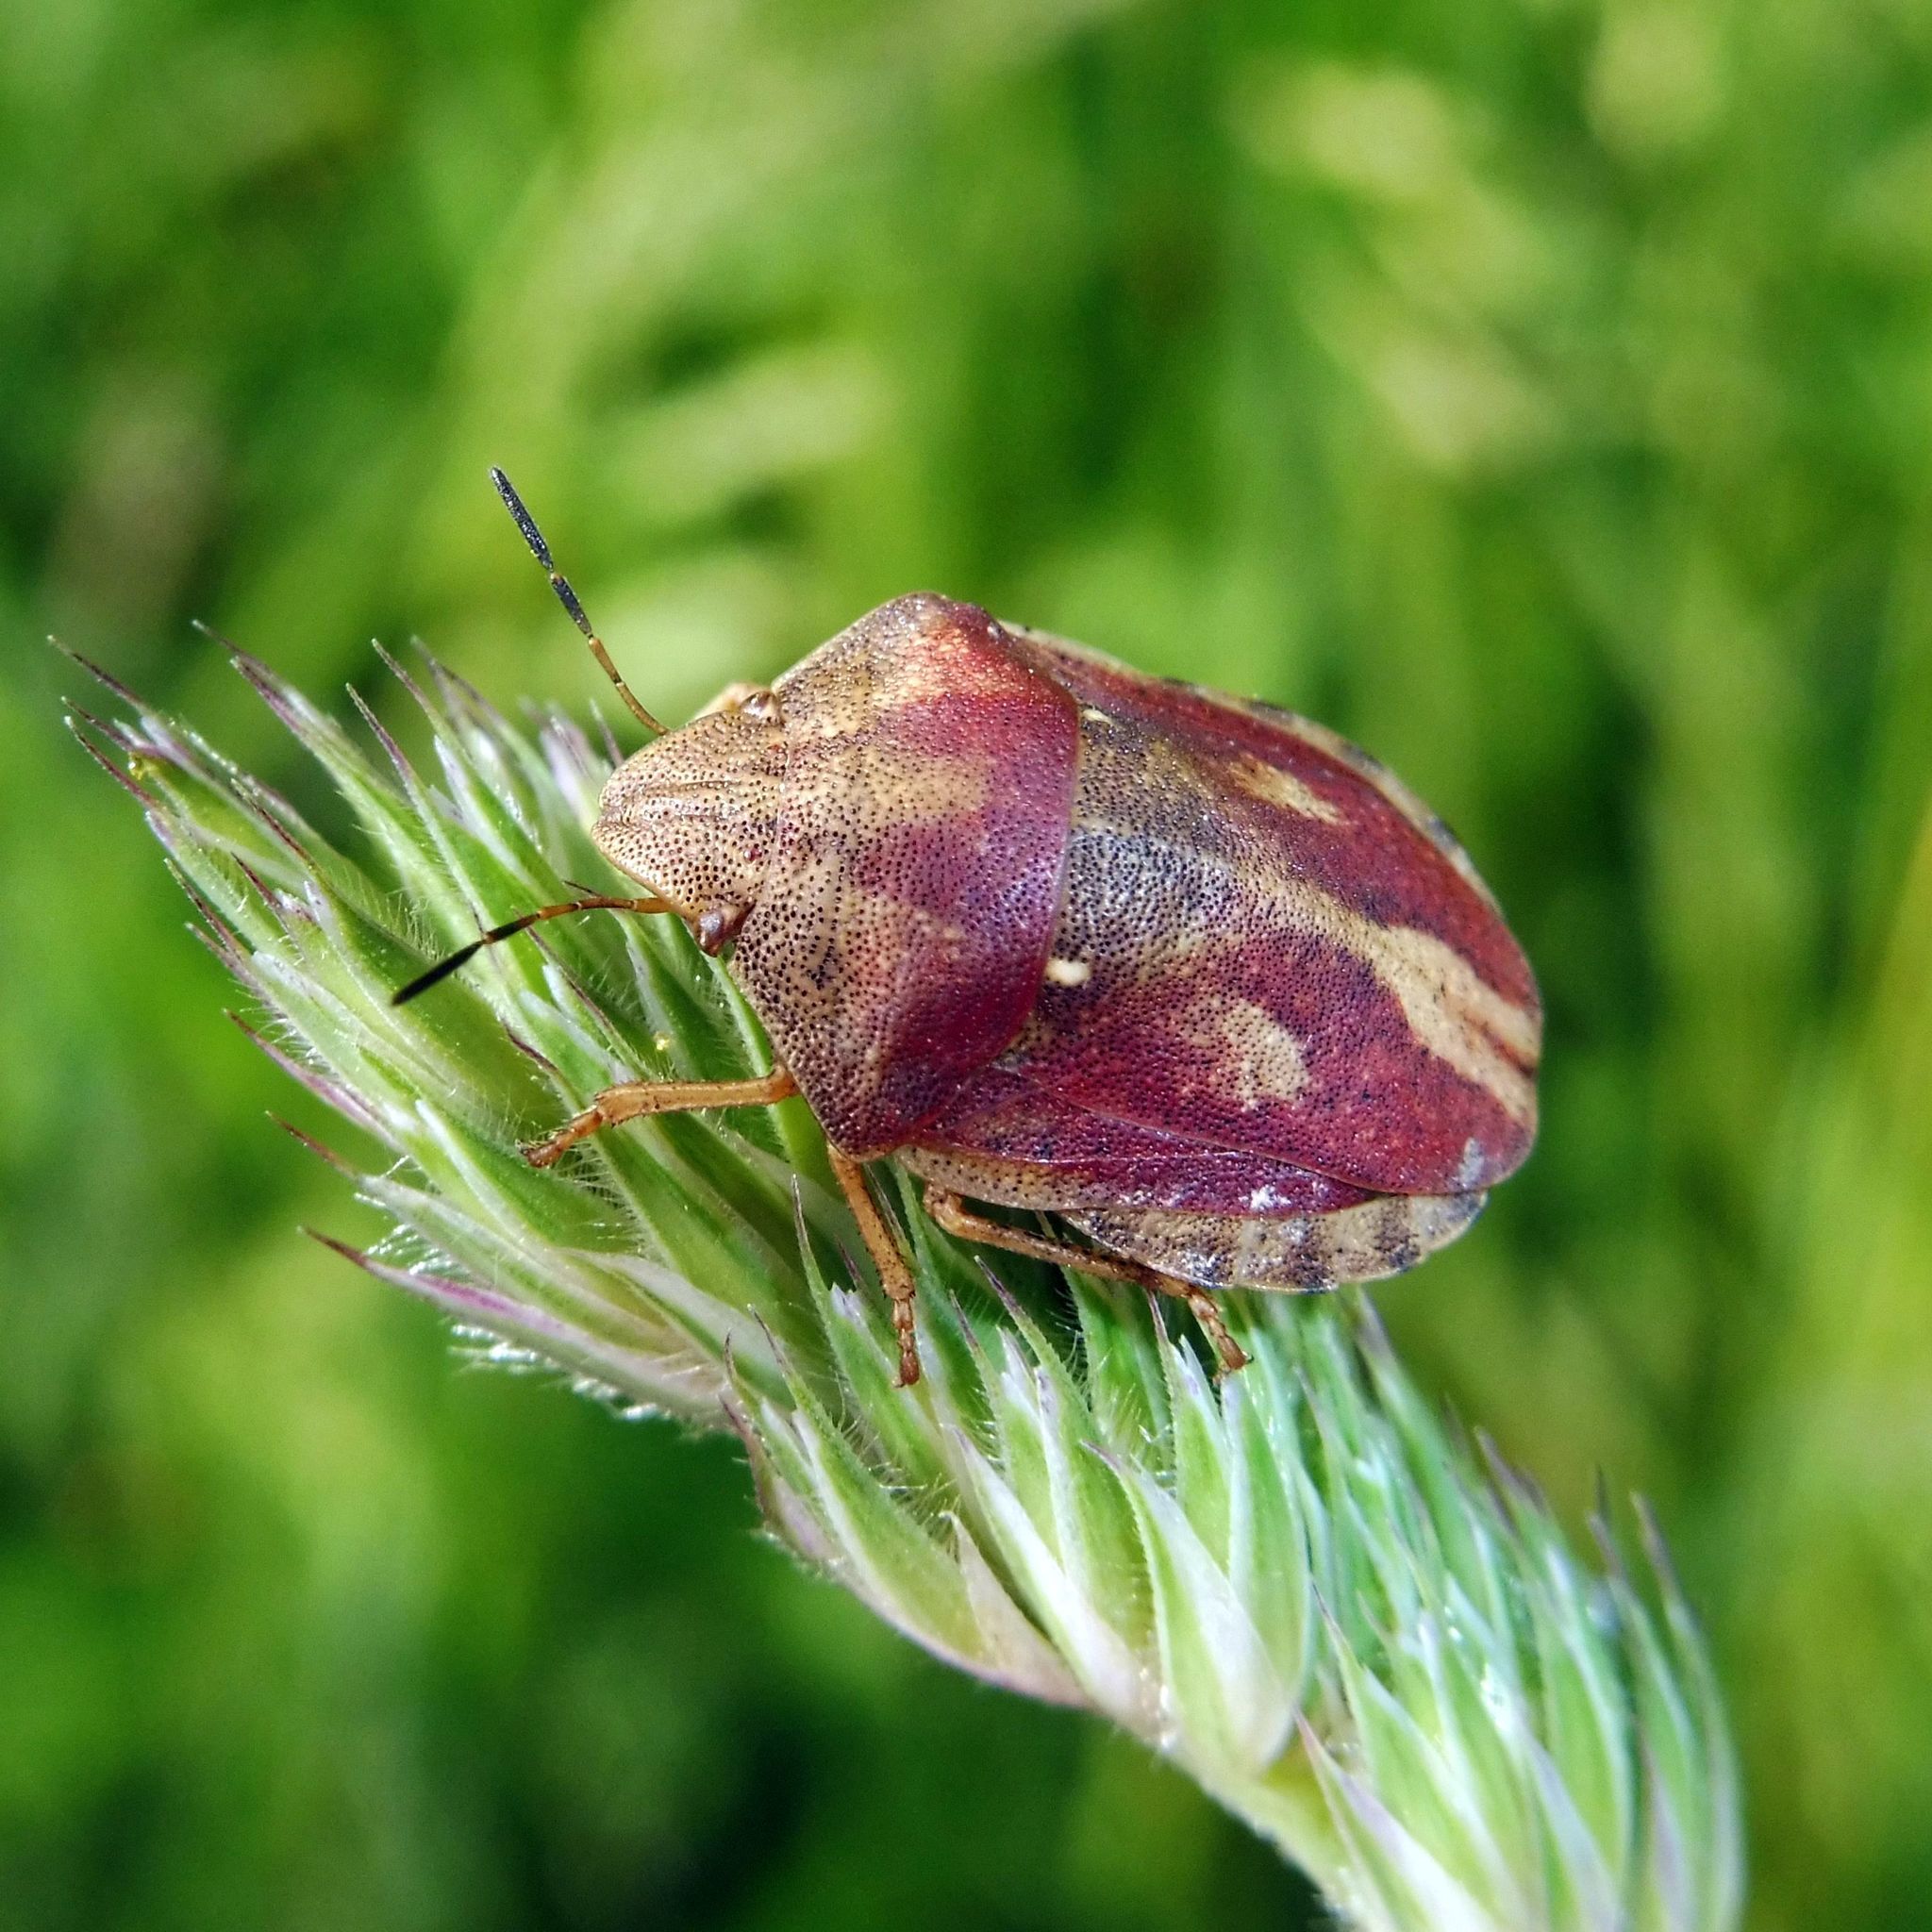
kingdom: Animalia
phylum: Arthropoda
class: Insecta
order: Hemiptera
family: Scutelleridae
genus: Eurygaster
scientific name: Eurygaster testudinaria
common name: Tortoise bug
